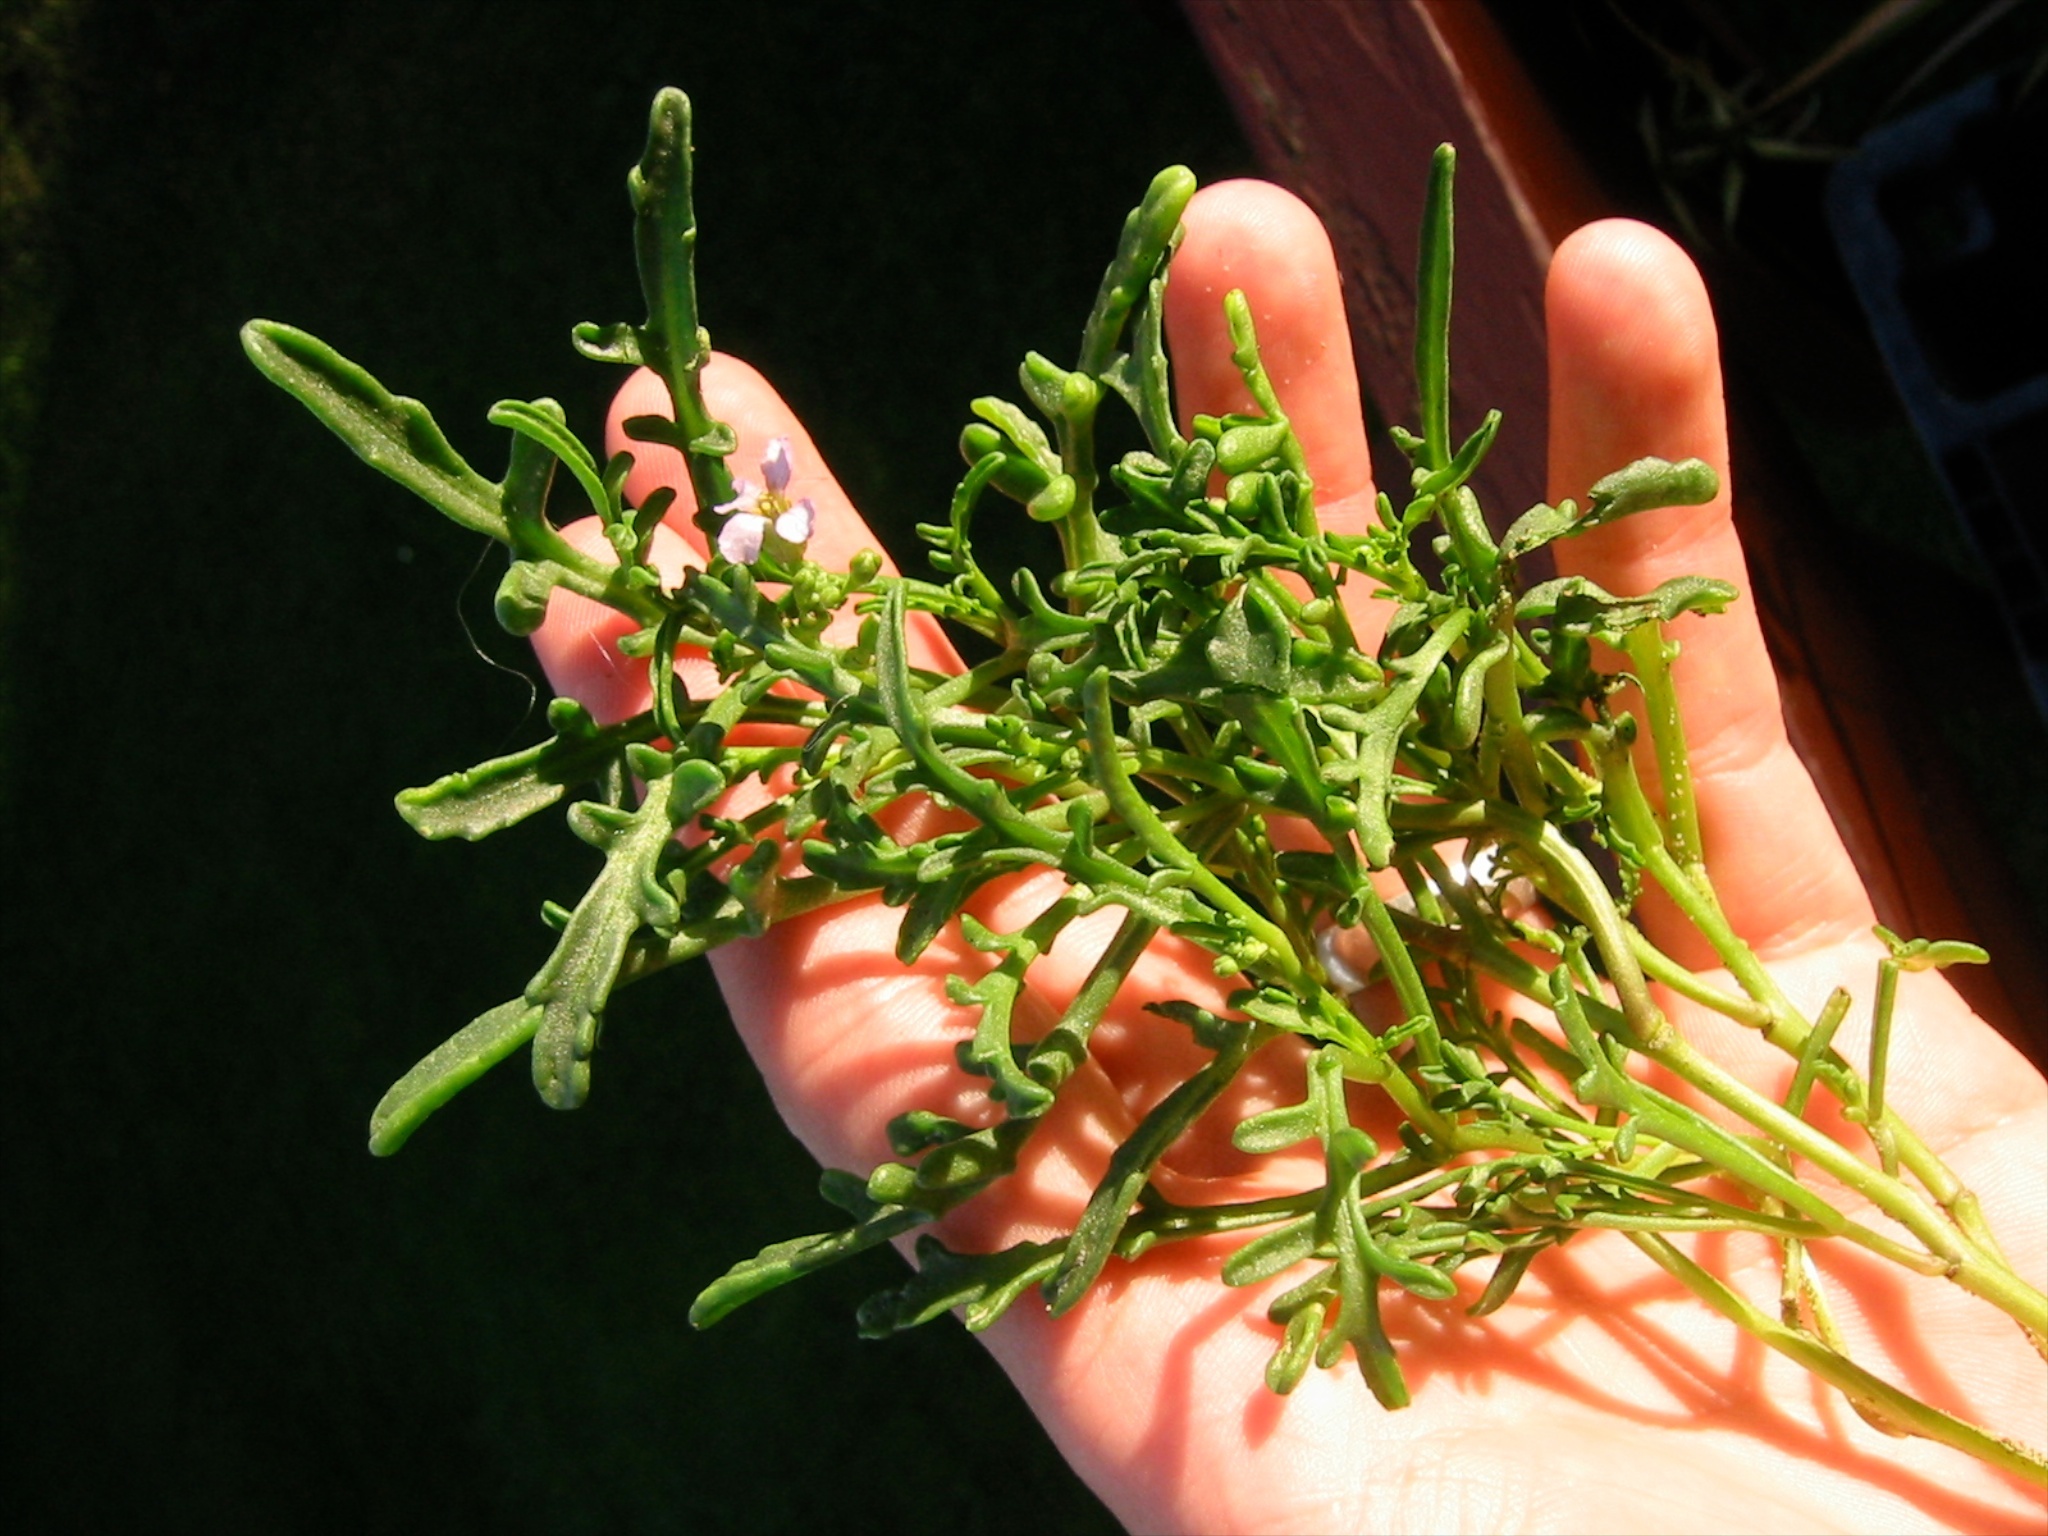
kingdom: Plantae
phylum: Tracheophyta
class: Magnoliopsida
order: Brassicales
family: Brassicaceae
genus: Cakile
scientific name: Cakile maritima
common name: Sea rocket
